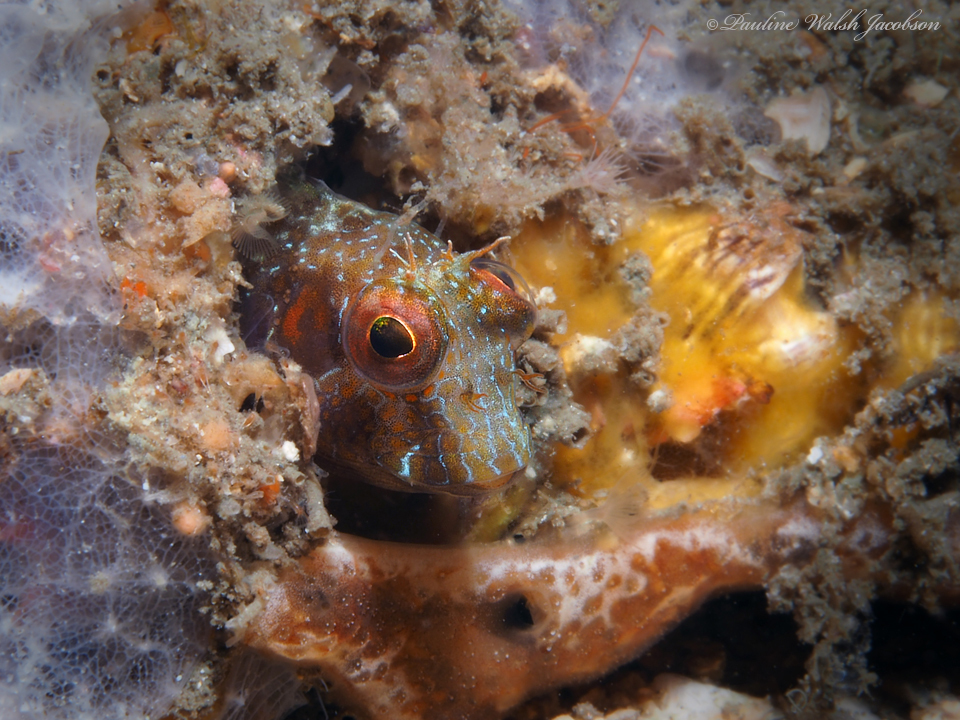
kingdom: Animalia
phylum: Chordata
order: Perciformes
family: Blenniidae
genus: Parablennius
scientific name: Parablennius marmoreus
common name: Seaweed blenny
